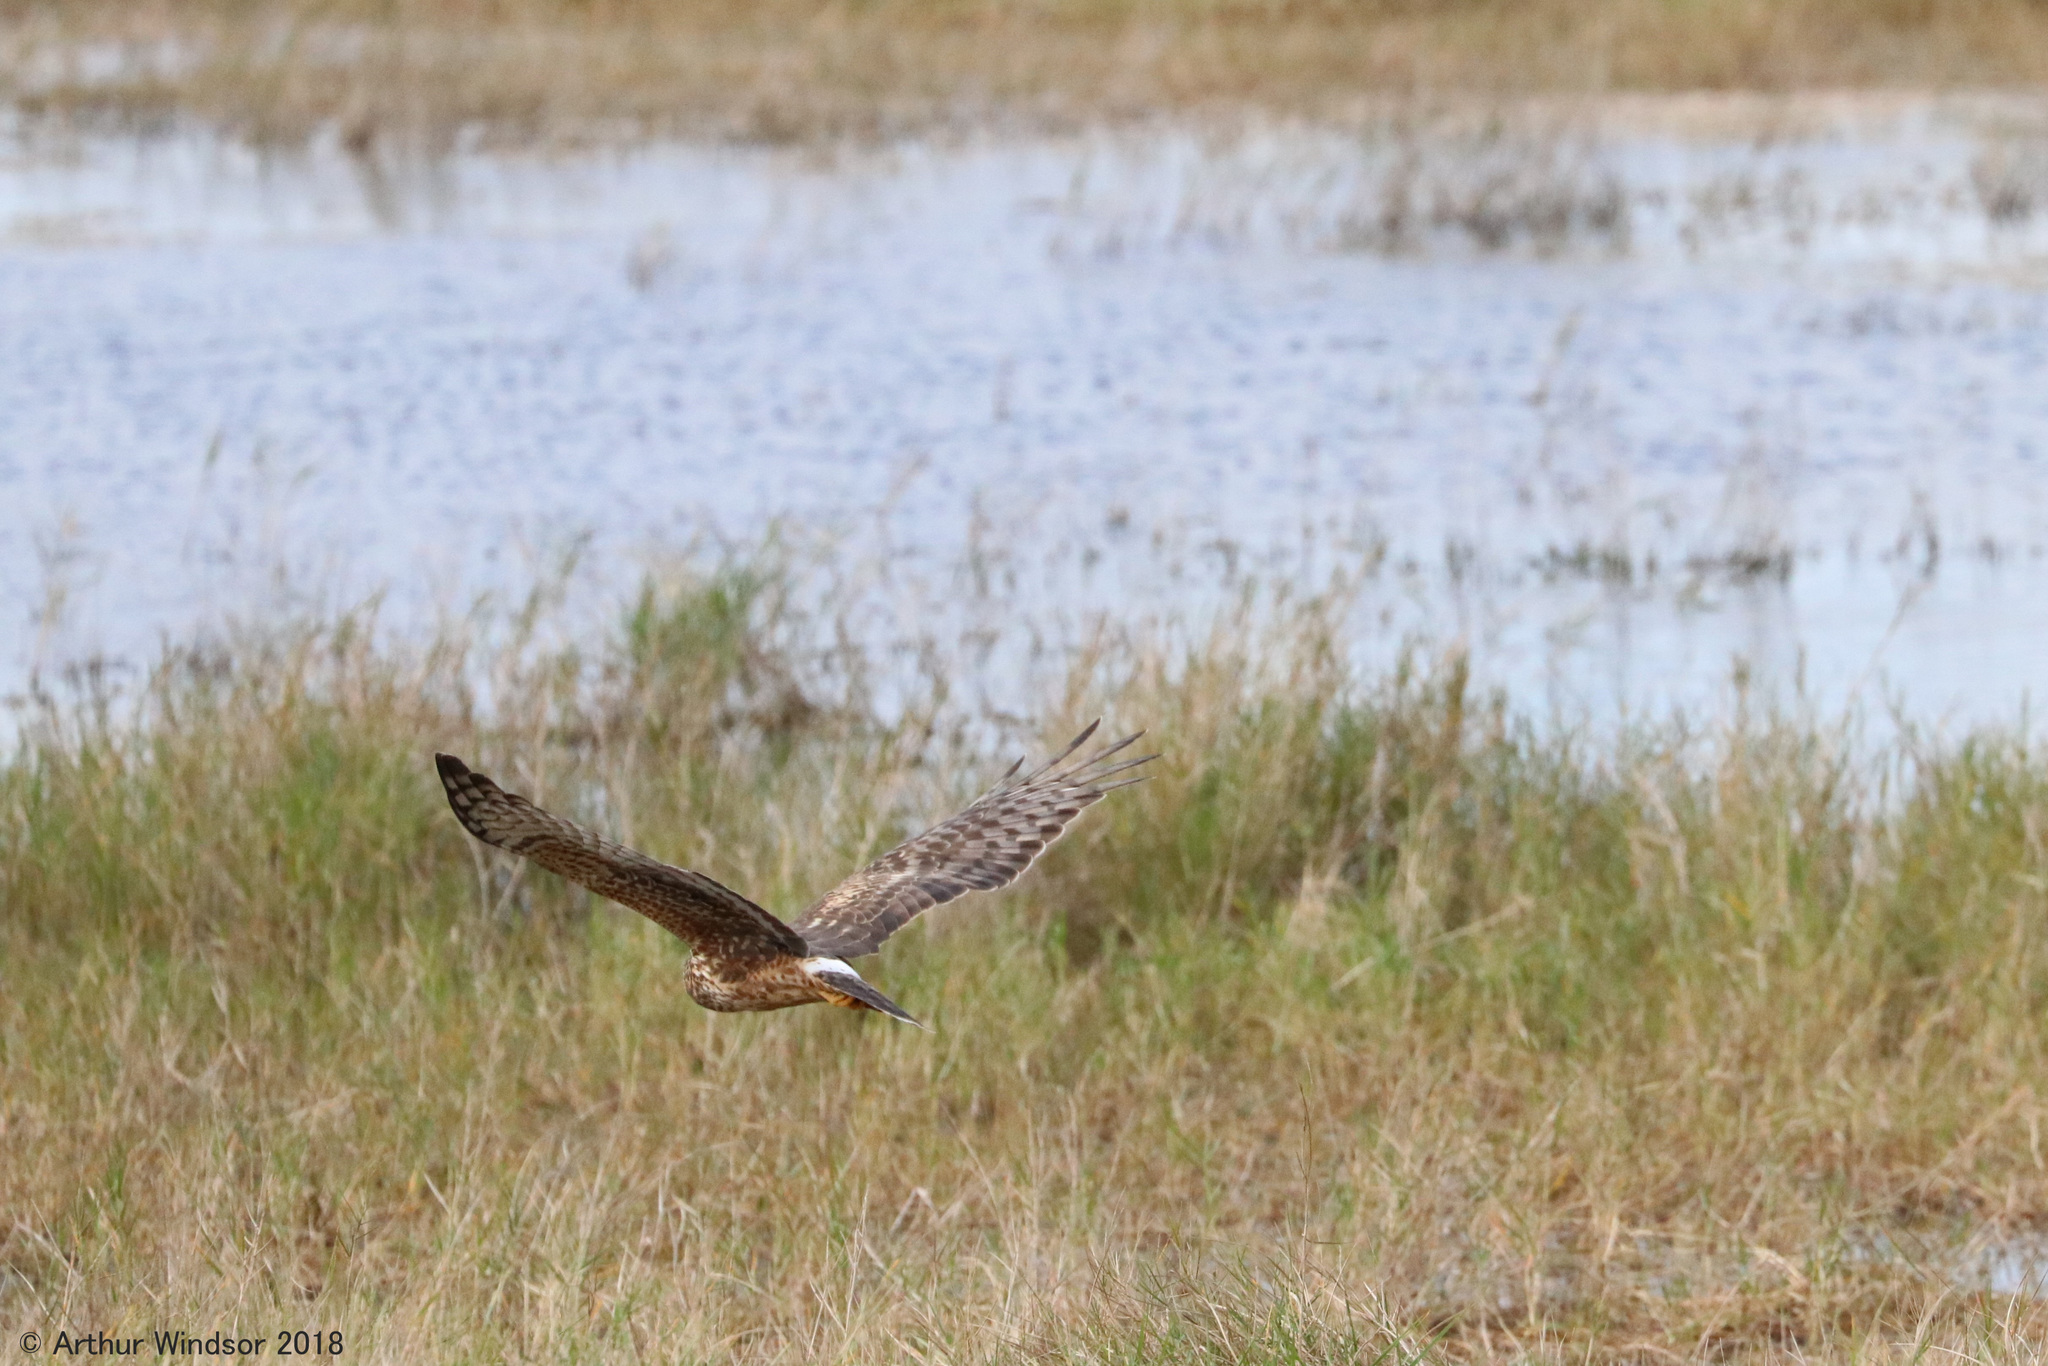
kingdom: Animalia
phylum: Chordata
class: Aves
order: Accipitriformes
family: Accipitridae
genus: Circus
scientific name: Circus cyaneus
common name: Hen harrier
